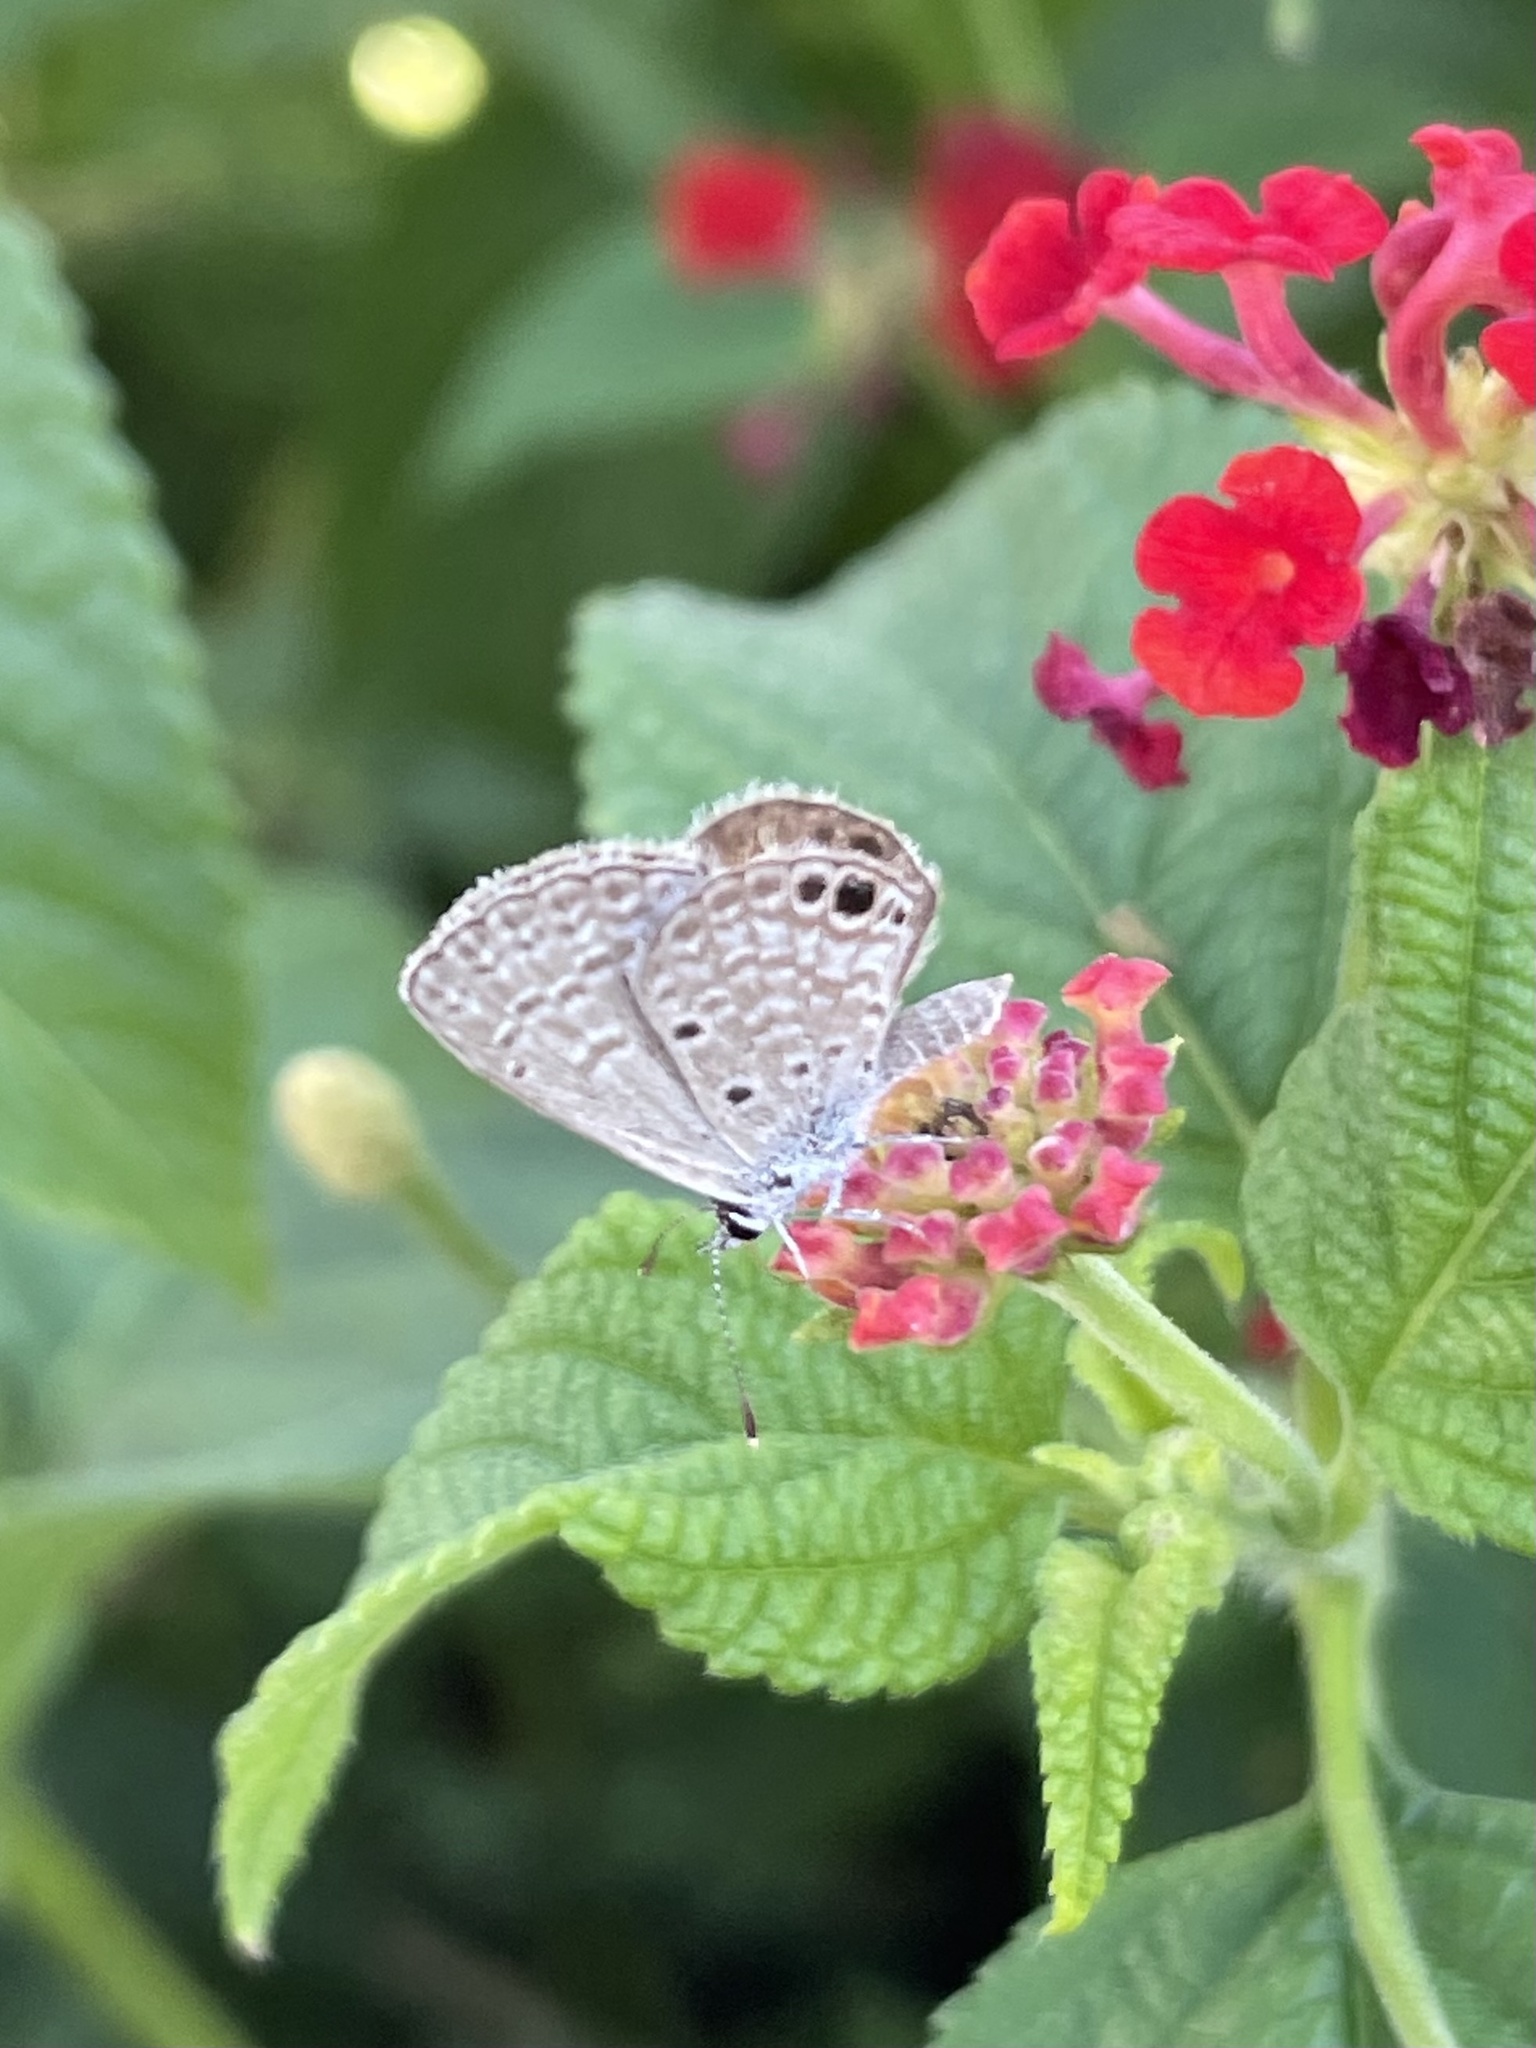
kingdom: Animalia
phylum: Arthropoda
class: Insecta
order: Lepidoptera
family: Lycaenidae
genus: Hemiargus
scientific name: Hemiargus ceraunus
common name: Ceraunus blue
